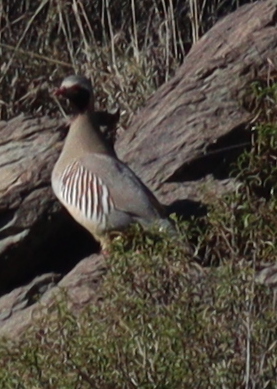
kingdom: Animalia
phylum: Chordata
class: Aves
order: Galliformes
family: Phasianidae
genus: Alectoris
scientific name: Alectoris philbyi
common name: Philby's partridge
